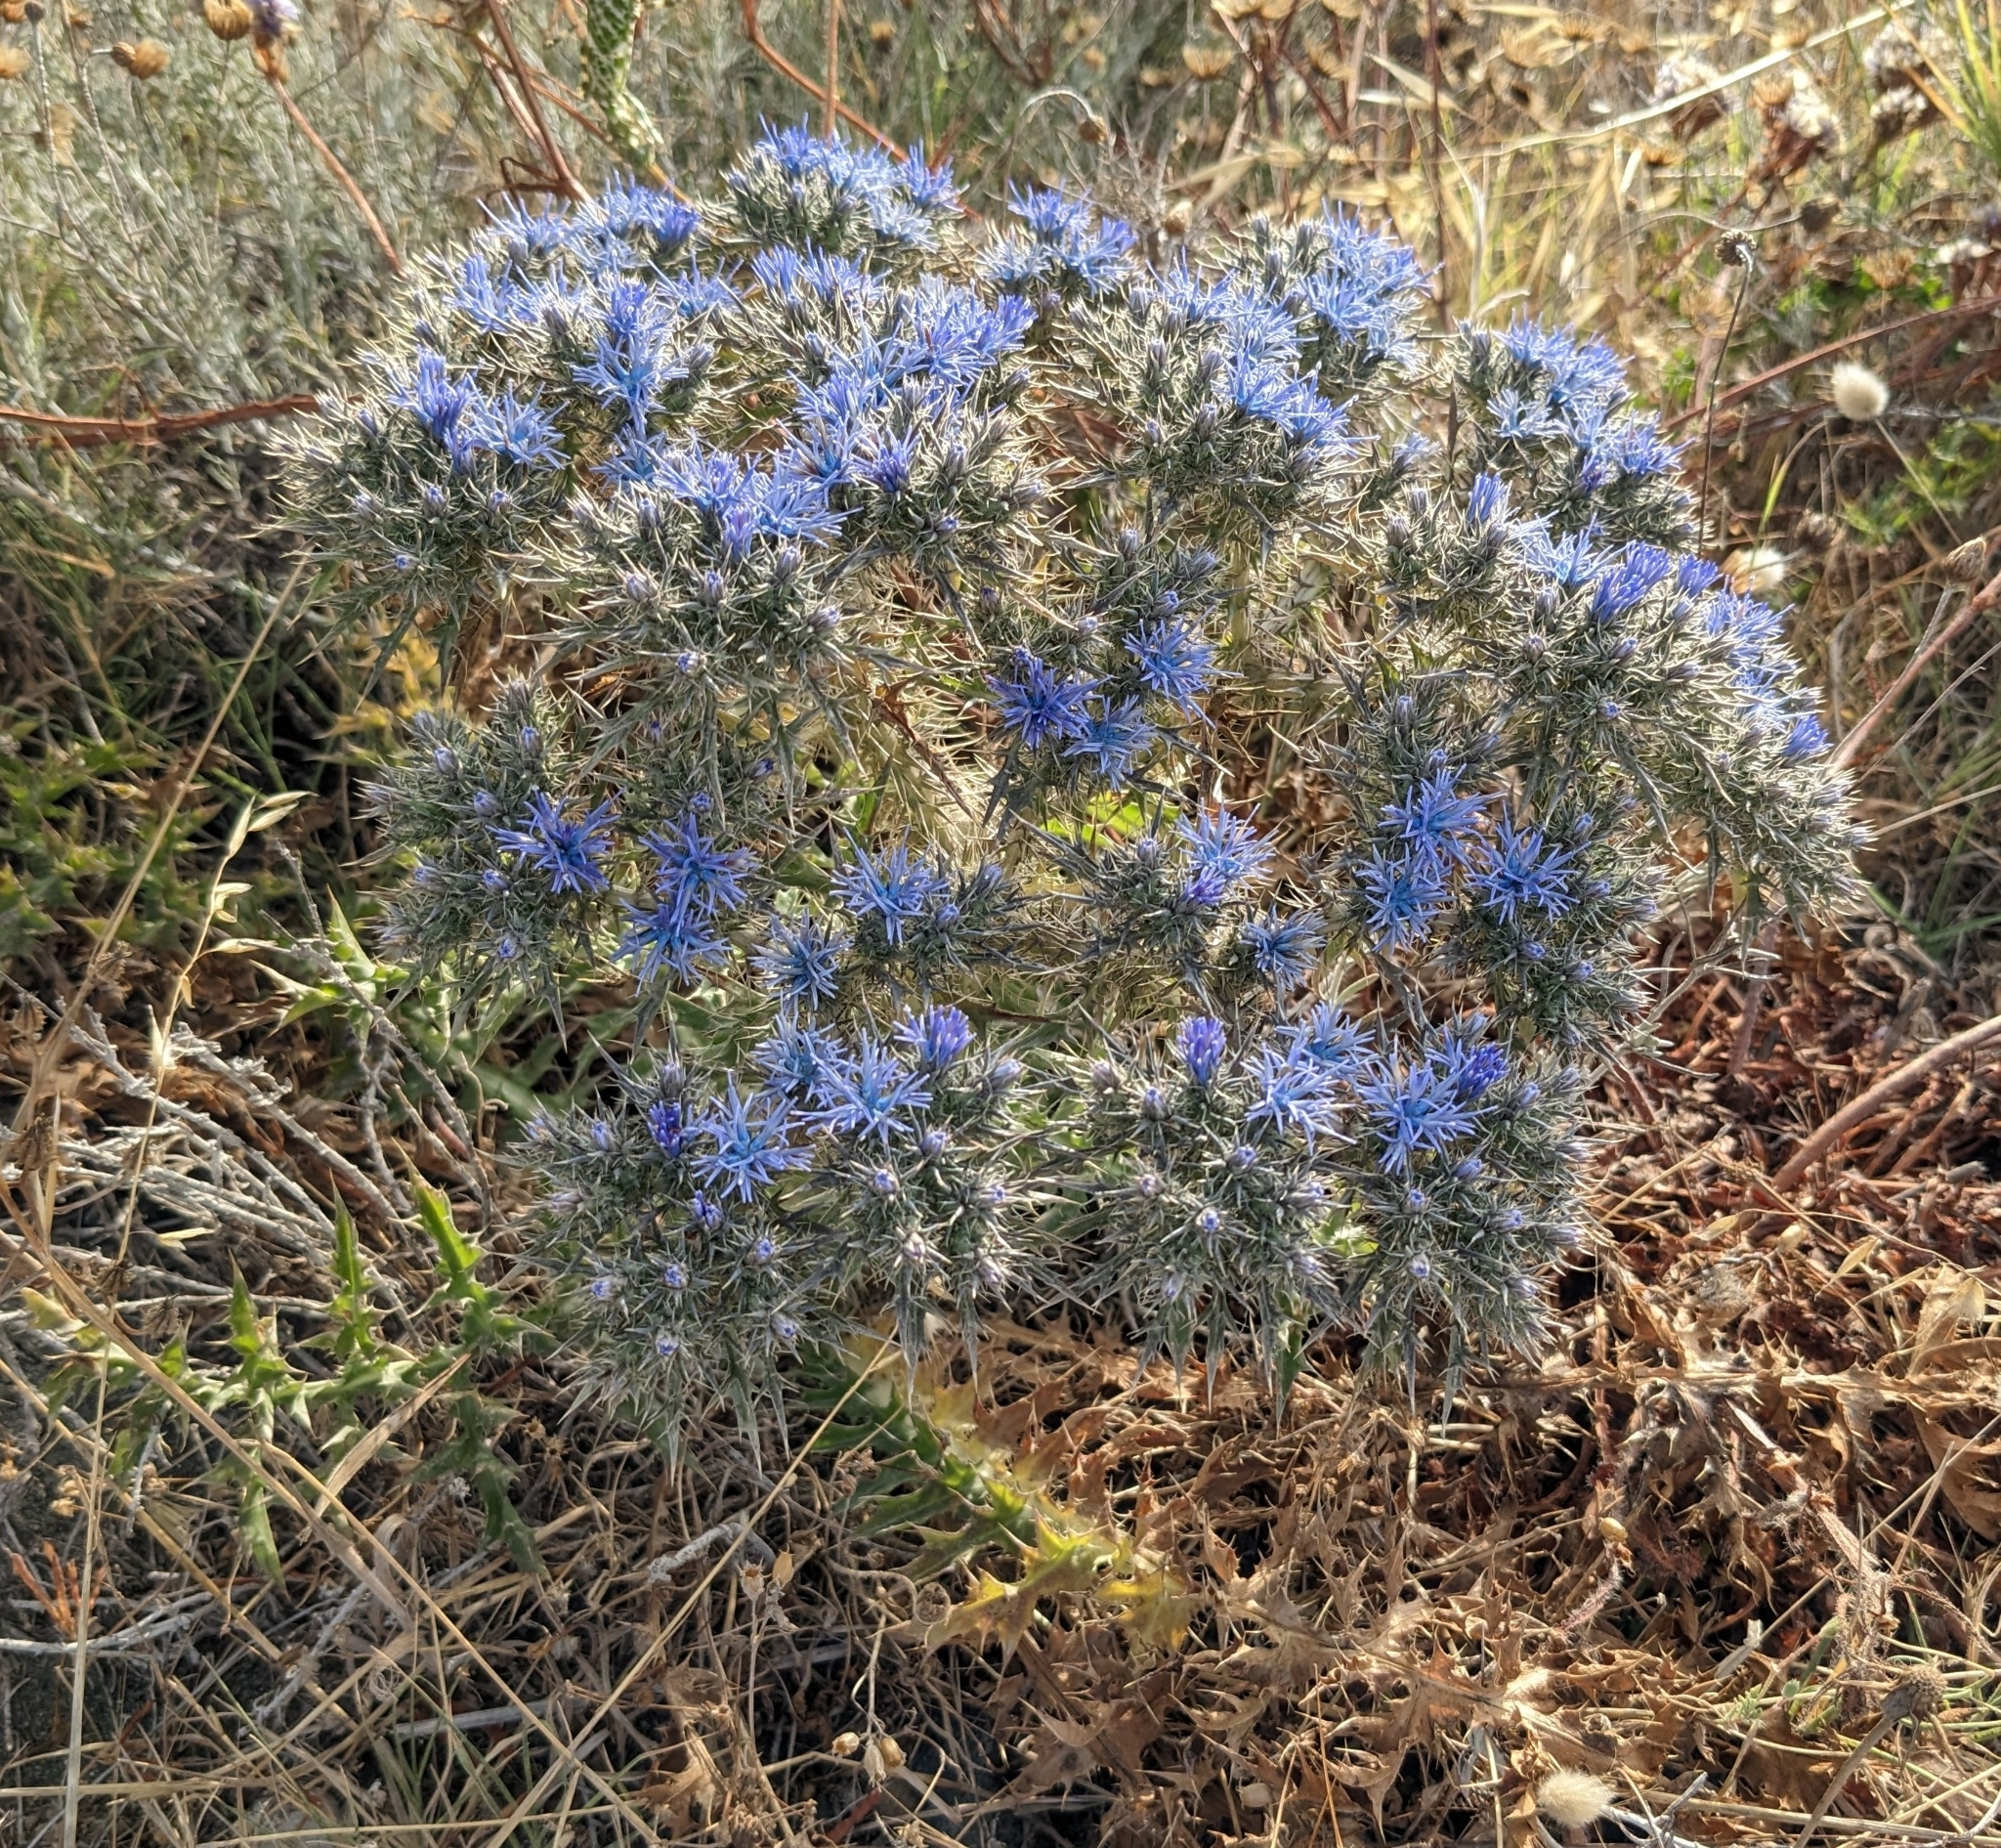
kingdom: Plantae
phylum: Tracheophyta
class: Magnoliopsida
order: Asterales
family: Asteraceae
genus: Cardopatium
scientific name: Cardopatium corymbosum
